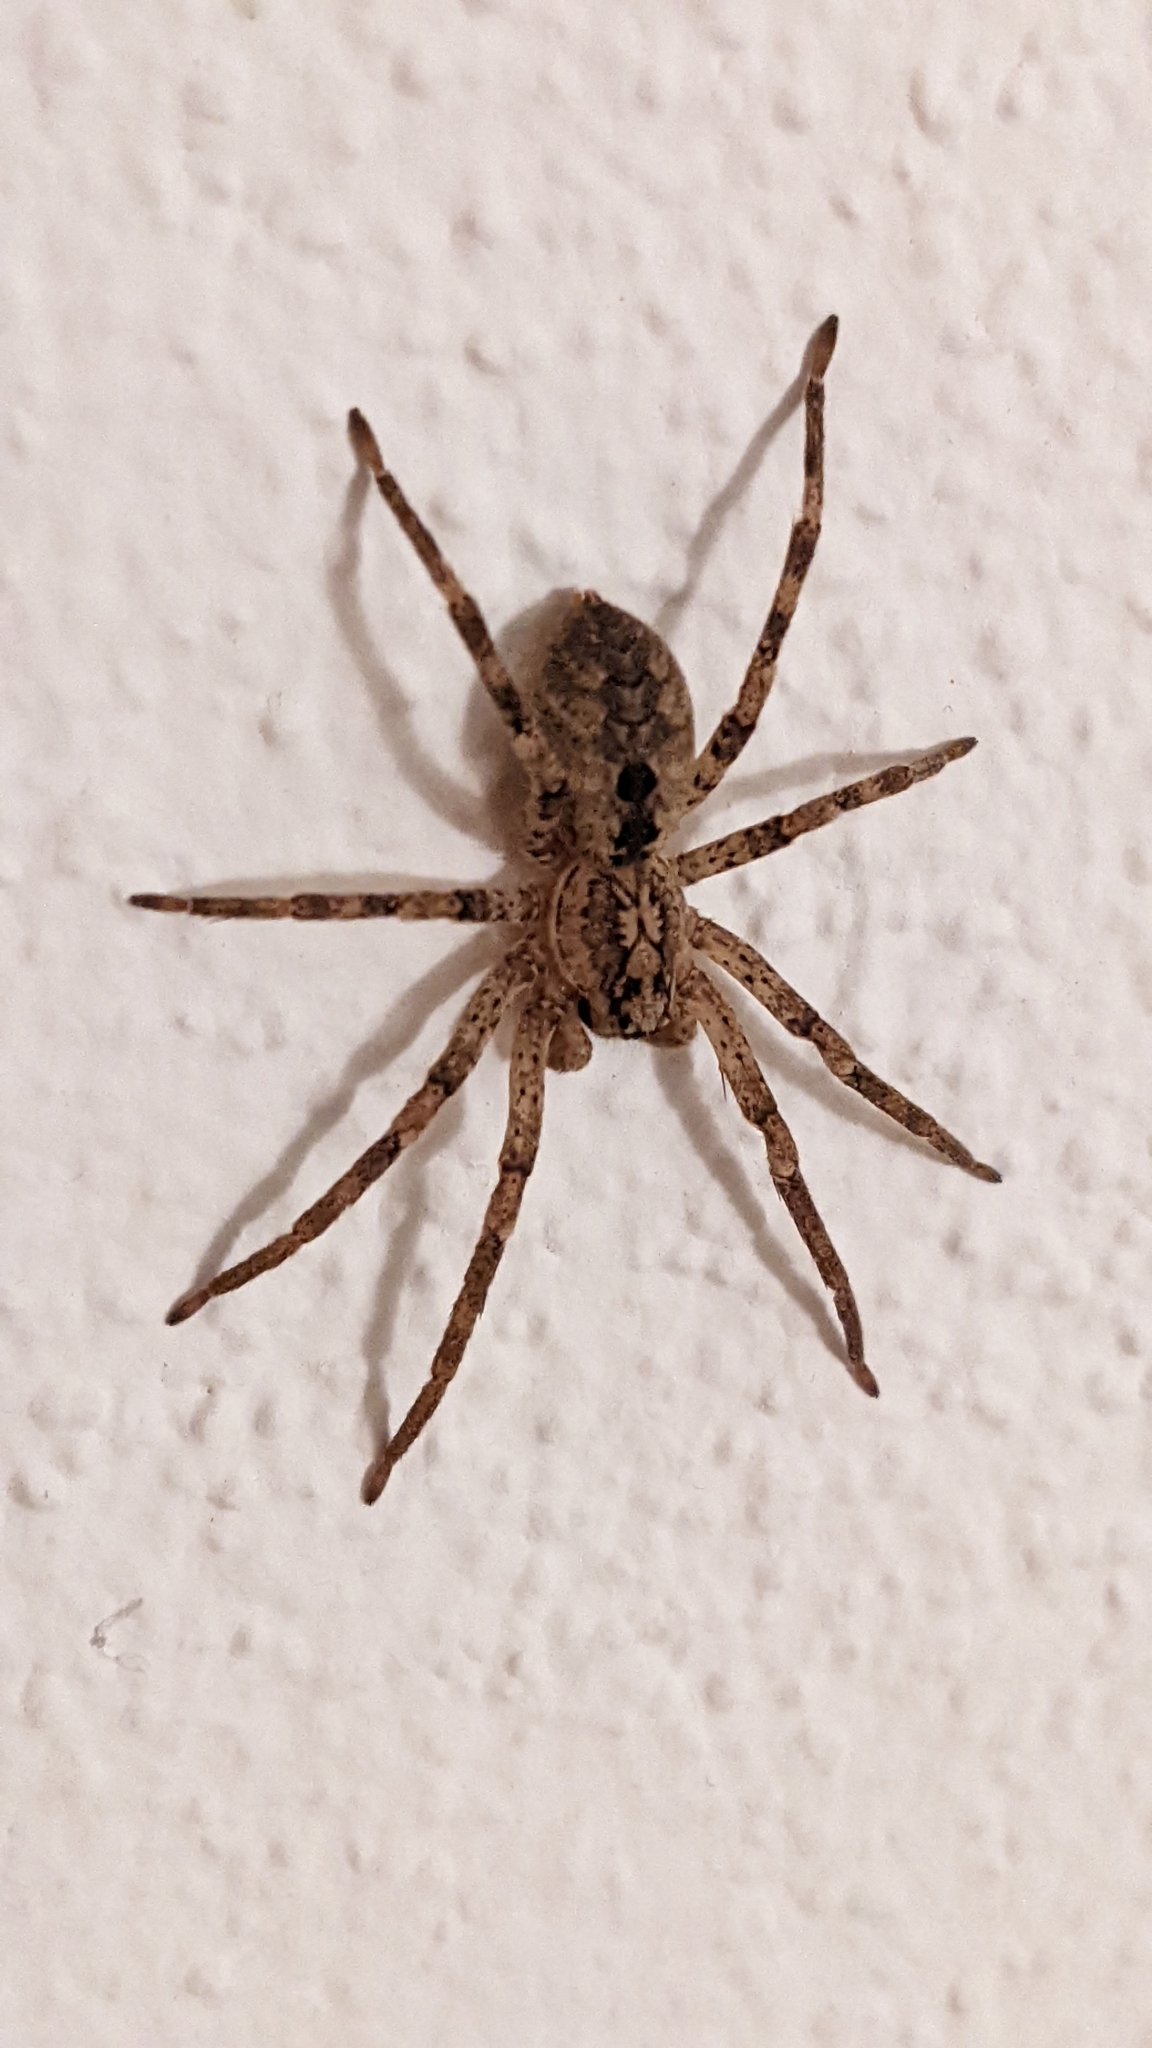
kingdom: Animalia
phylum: Arthropoda
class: Arachnida
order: Araneae
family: Zoropsidae
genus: Zoropsis
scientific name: Zoropsis spinimana
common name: Zoropsid spider
